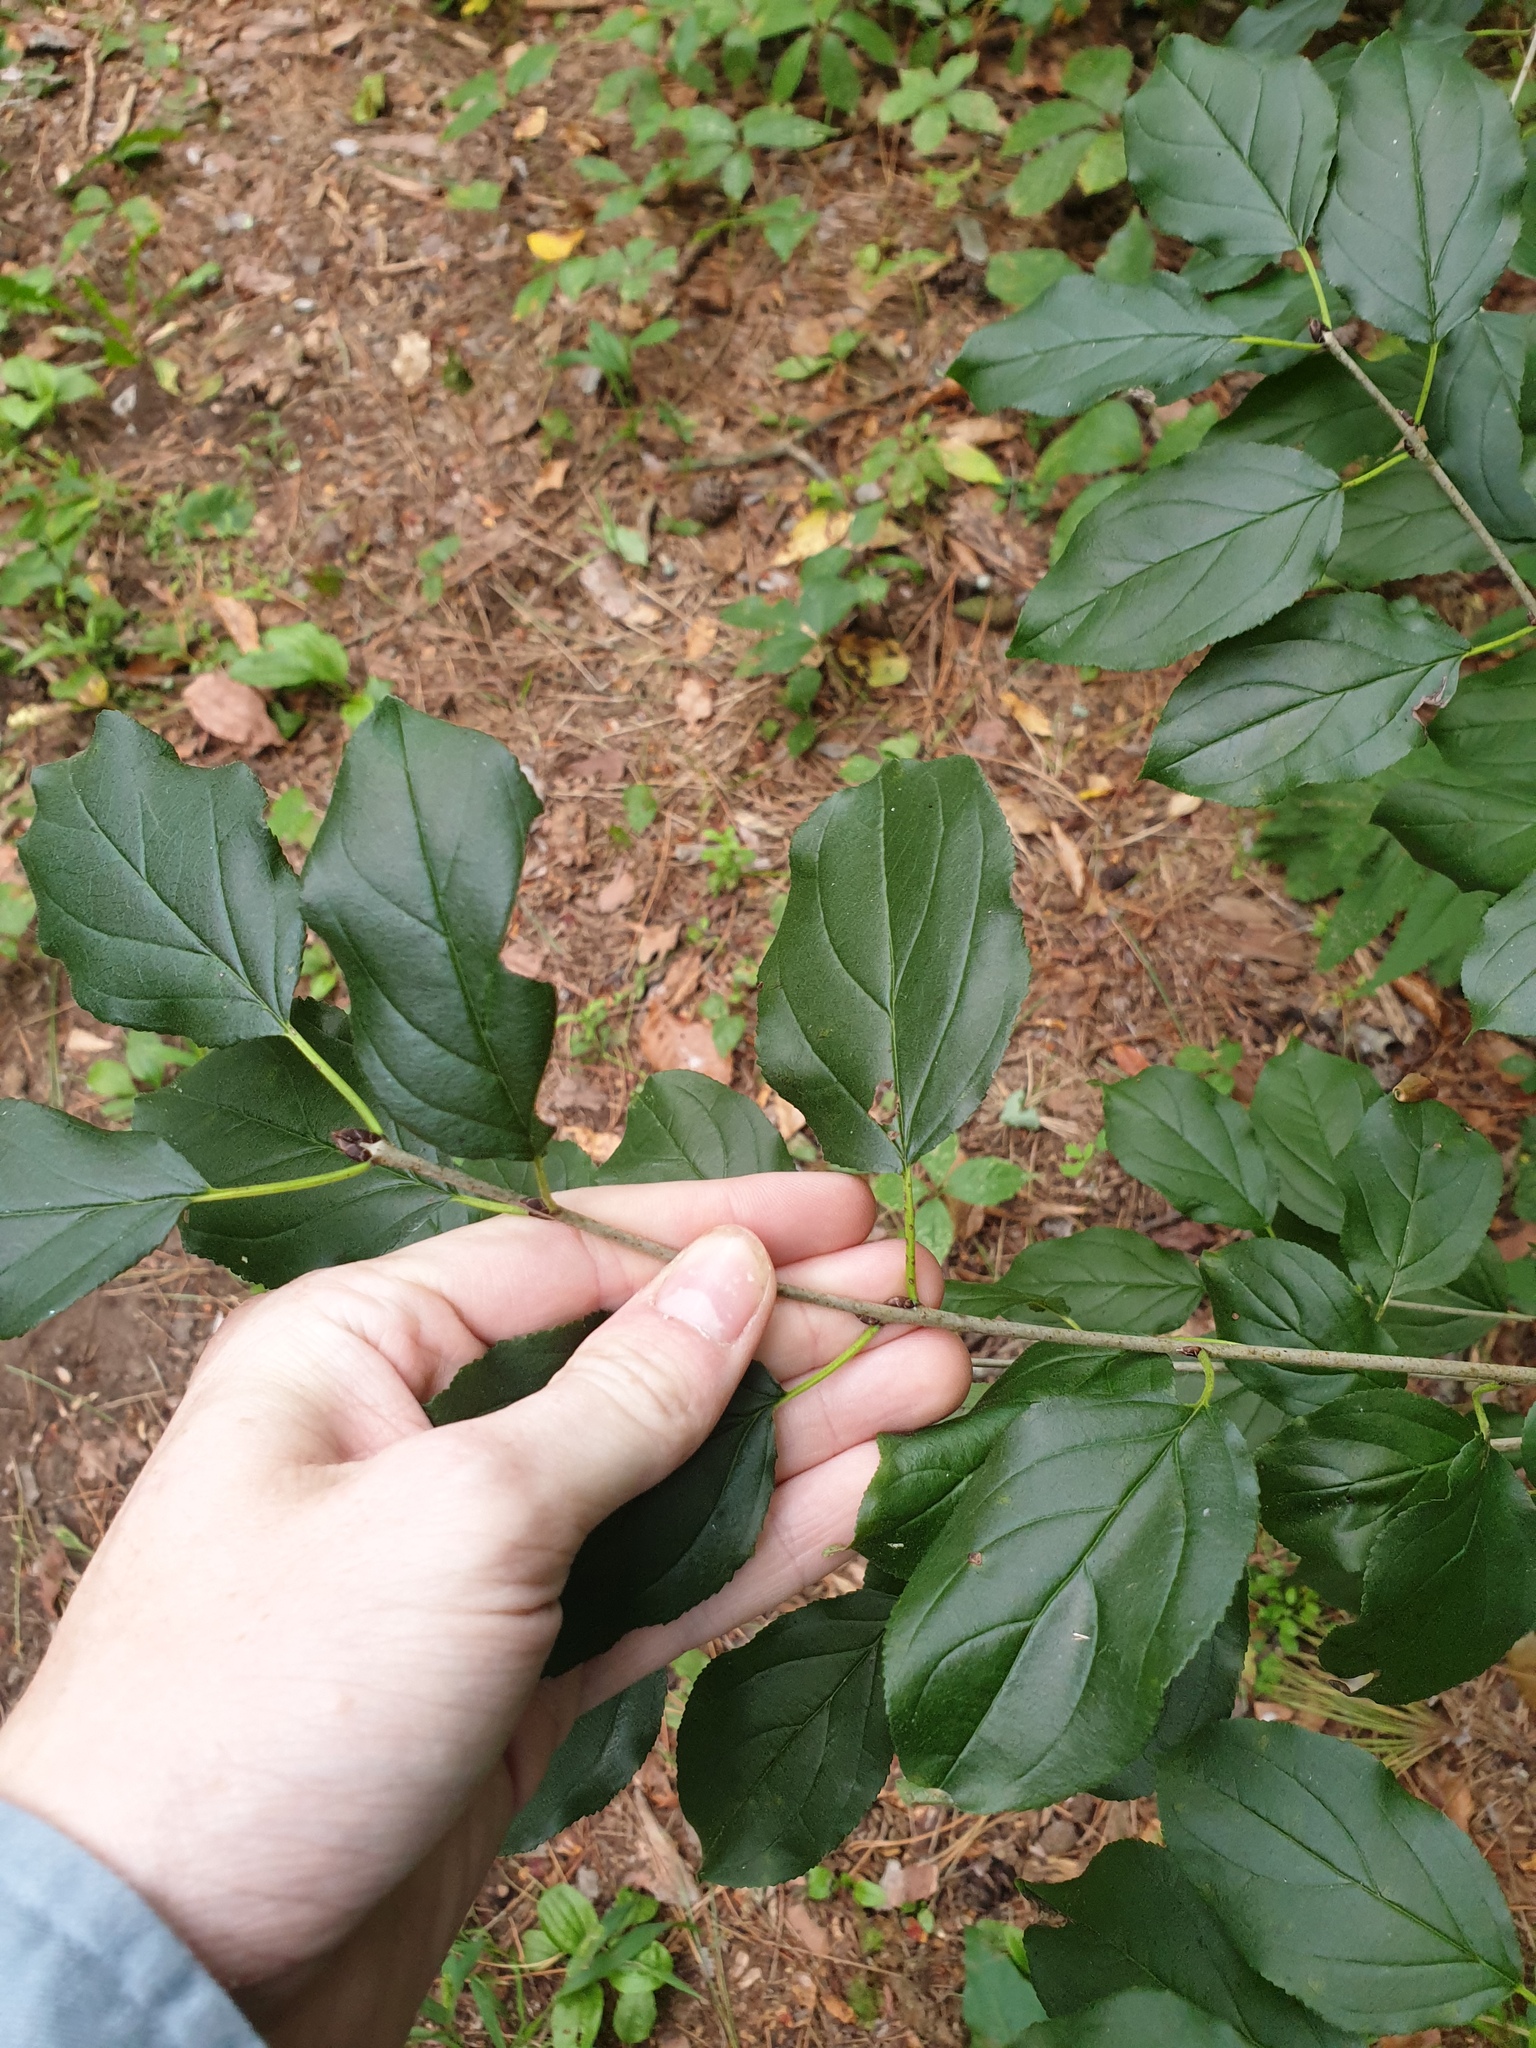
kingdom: Plantae
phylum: Tracheophyta
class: Magnoliopsida
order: Rosales
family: Rhamnaceae
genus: Rhamnus
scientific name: Rhamnus cathartica
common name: Common buckthorn
